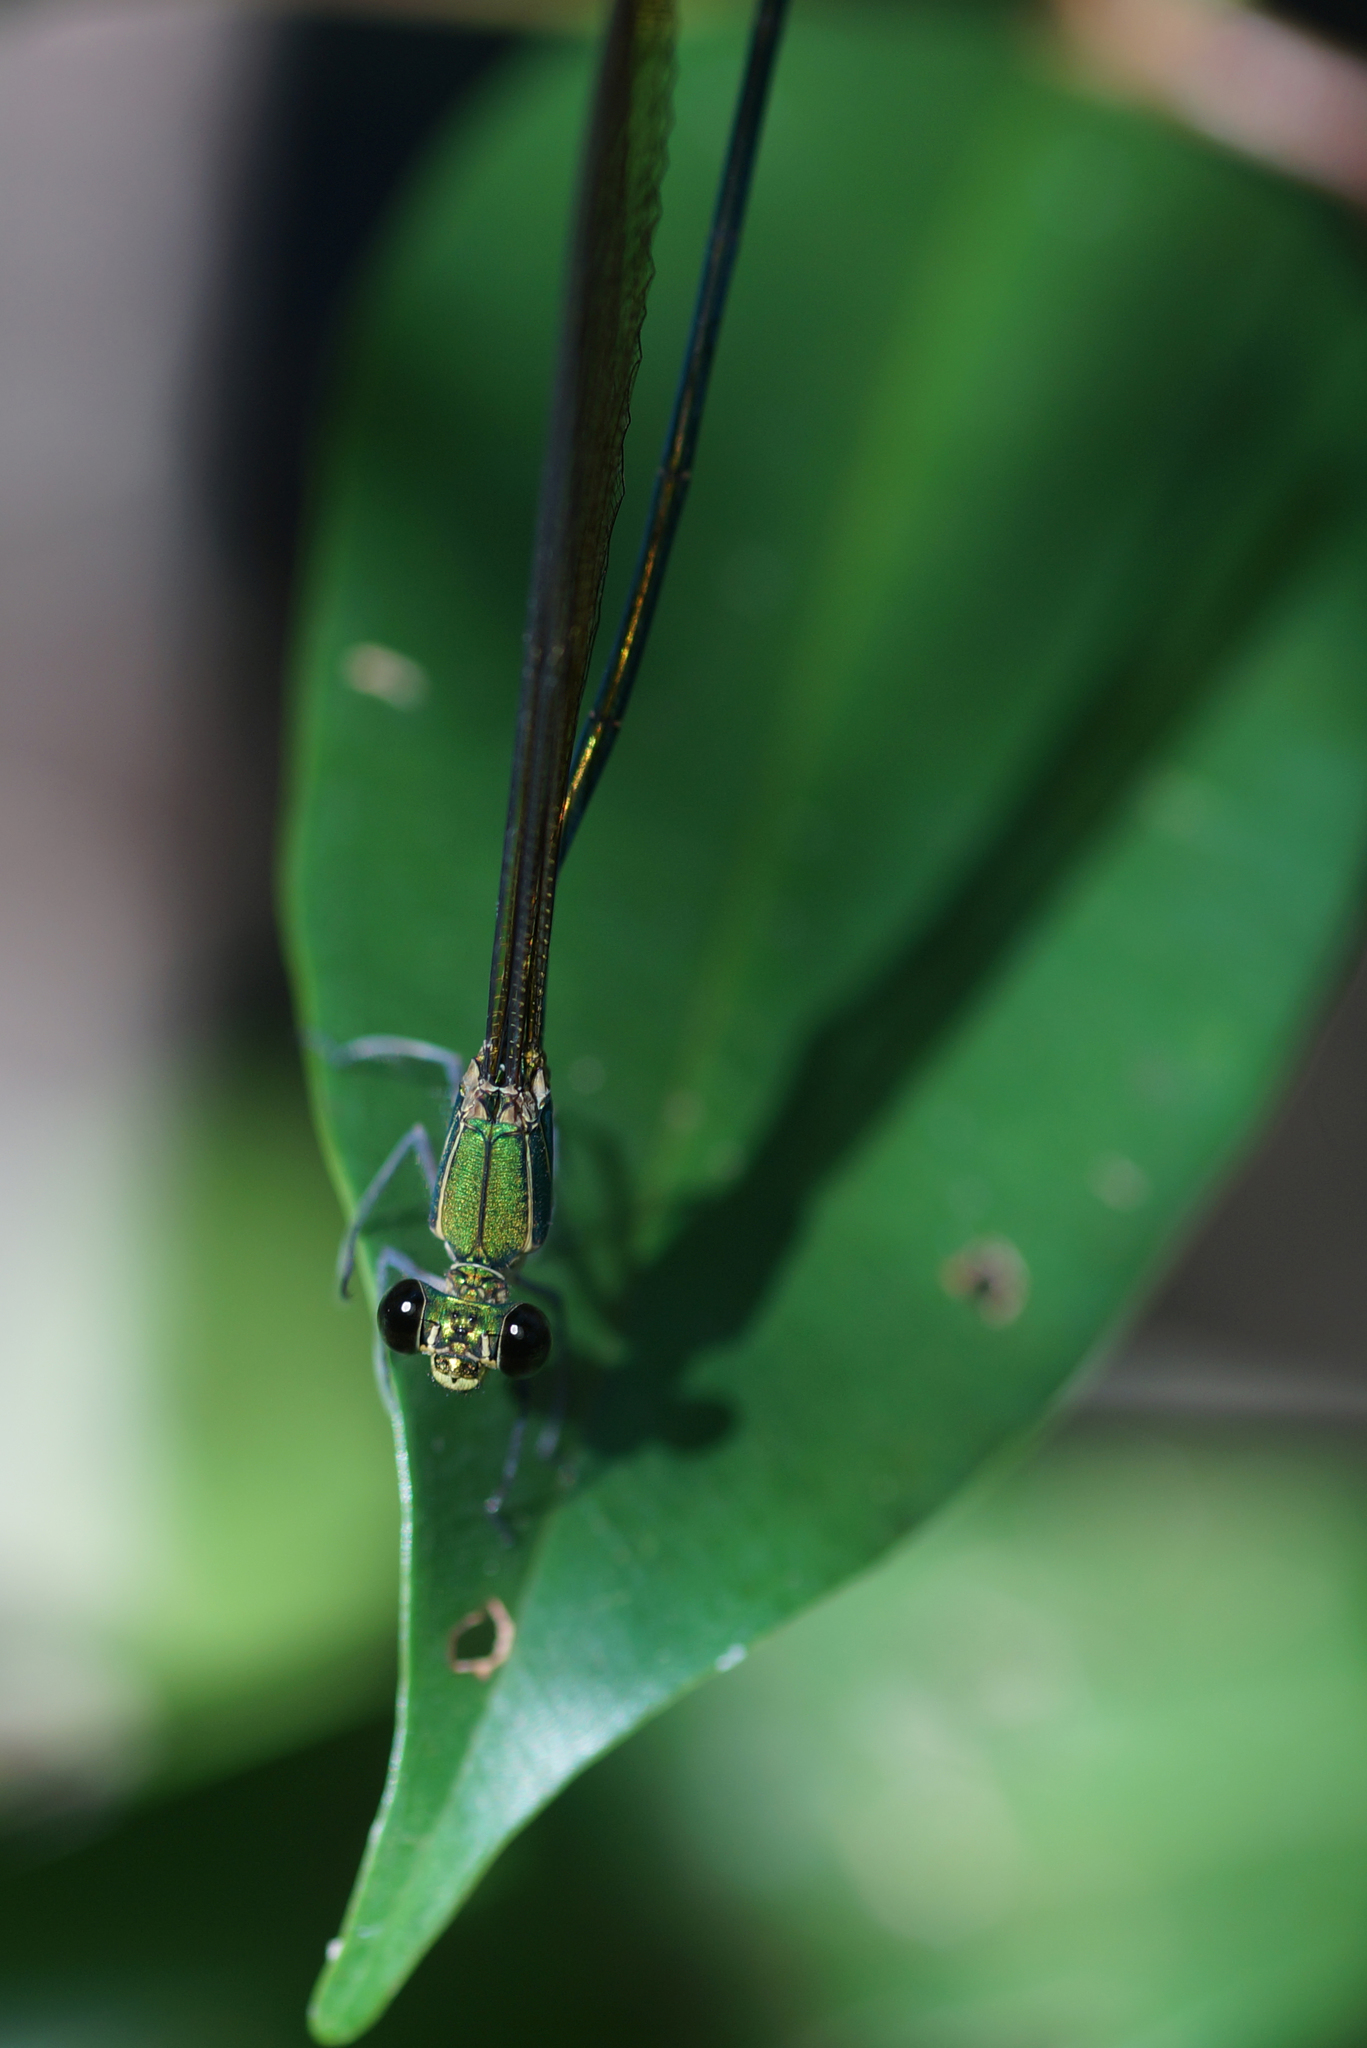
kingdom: Animalia
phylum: Arthropoda
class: Insecta
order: Odonata
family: Calopterygidae
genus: Vestalis
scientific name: Vestalis gracilis
